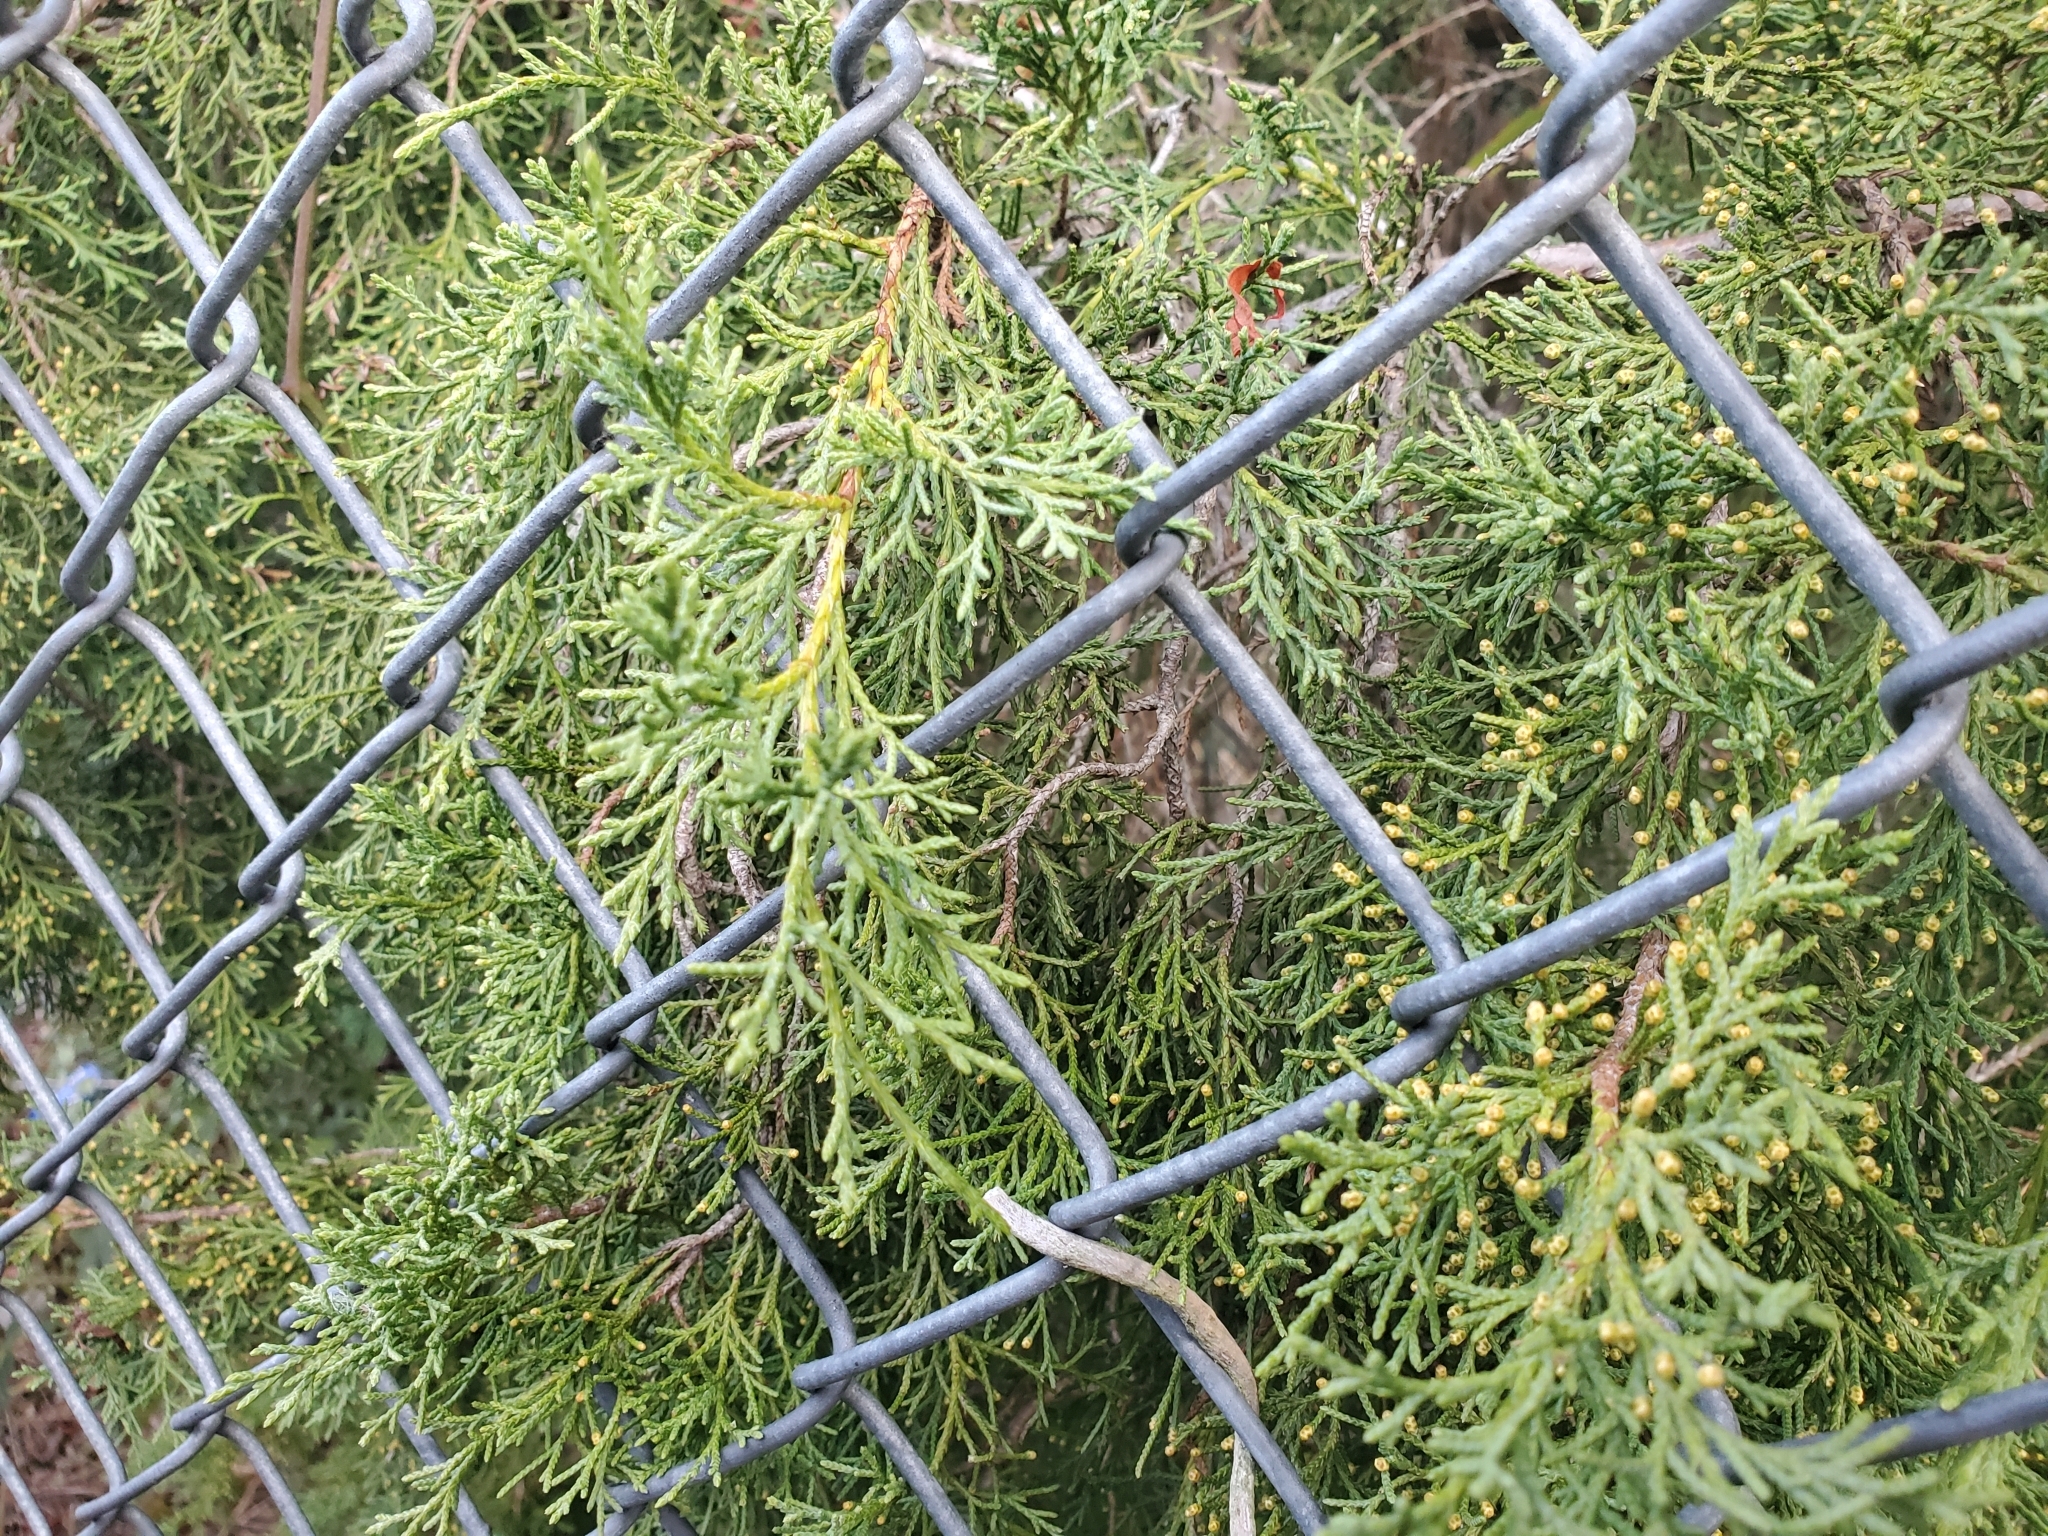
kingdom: Plantae
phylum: Tracheophyta
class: Pinopsida
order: Pinales
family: Cupressaceae
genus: Juniperus
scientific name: Juniperus virginiana
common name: Red juniper
